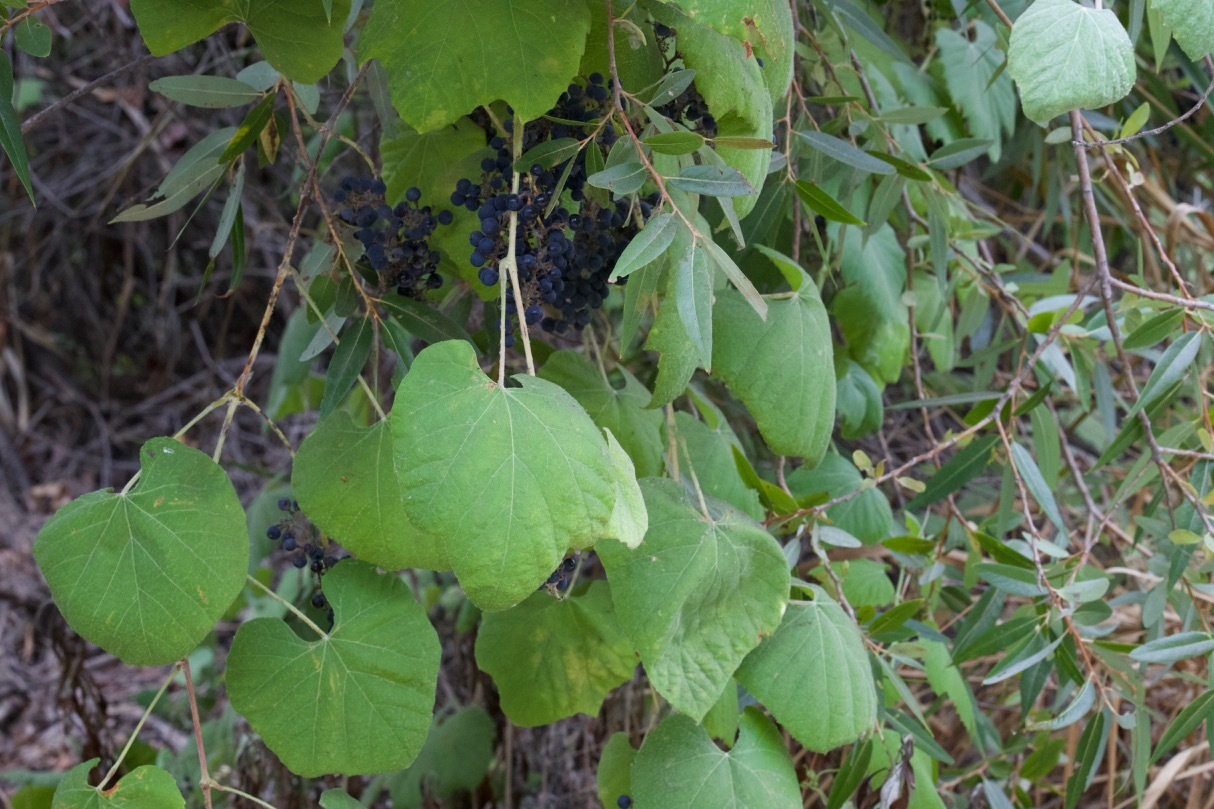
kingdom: Plantae
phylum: Tracheophyta
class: Magnoliopsida
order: Vitales
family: Vitaceae
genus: Vitis
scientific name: Vitis girdiana
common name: Desert wild grape
